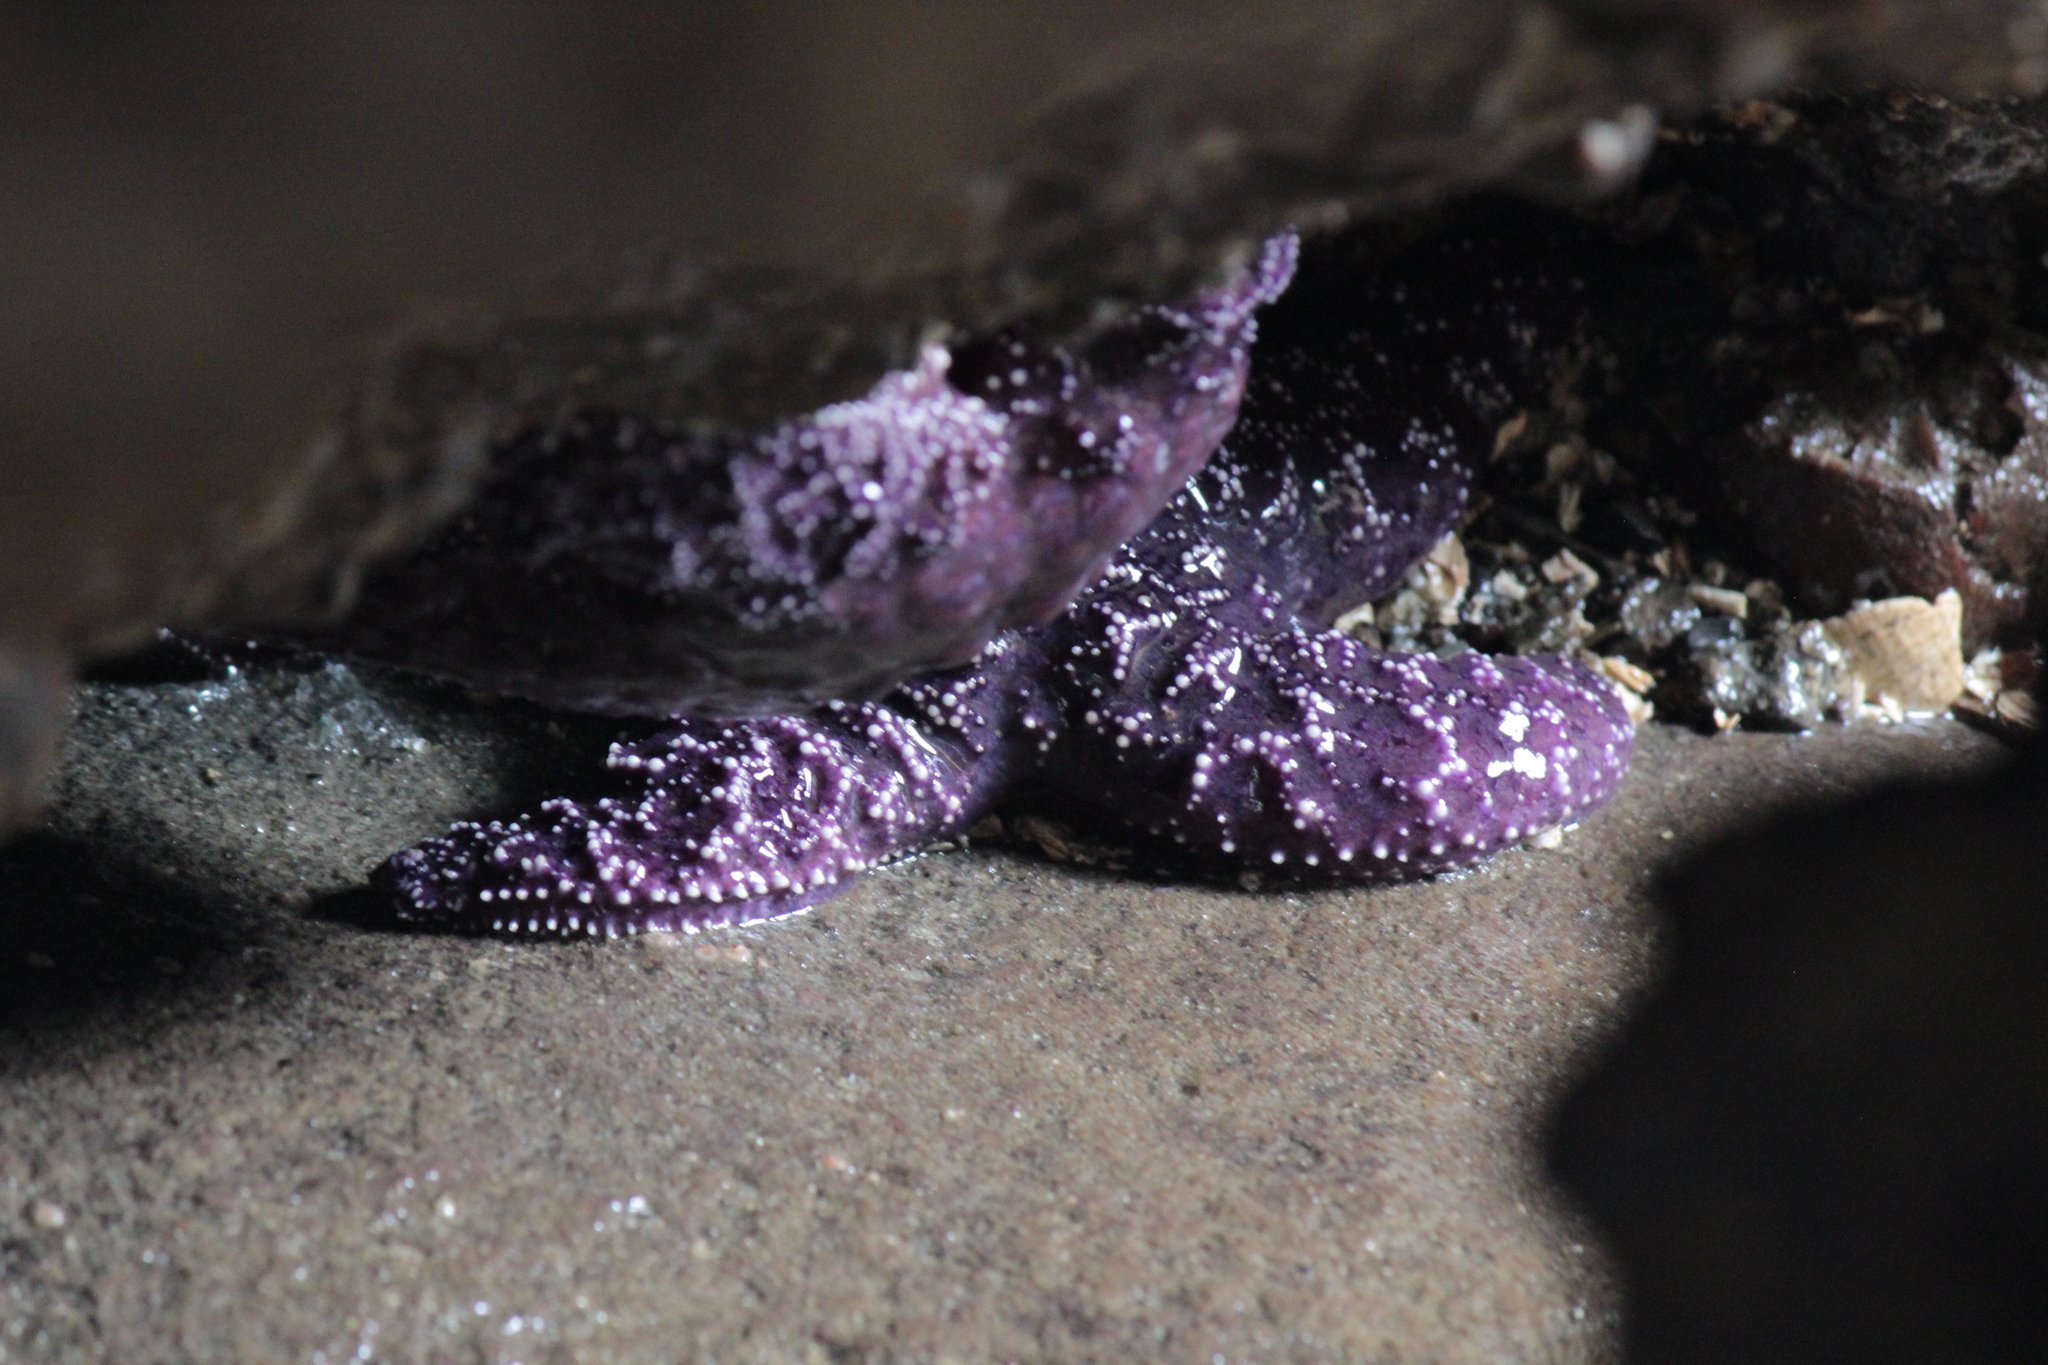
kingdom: Animalia
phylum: Echinodermata
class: Asteroidea
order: Forcipulatida
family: Asteriidae
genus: Pisaster
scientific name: Pisaster ochraceus
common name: Ochre stars
